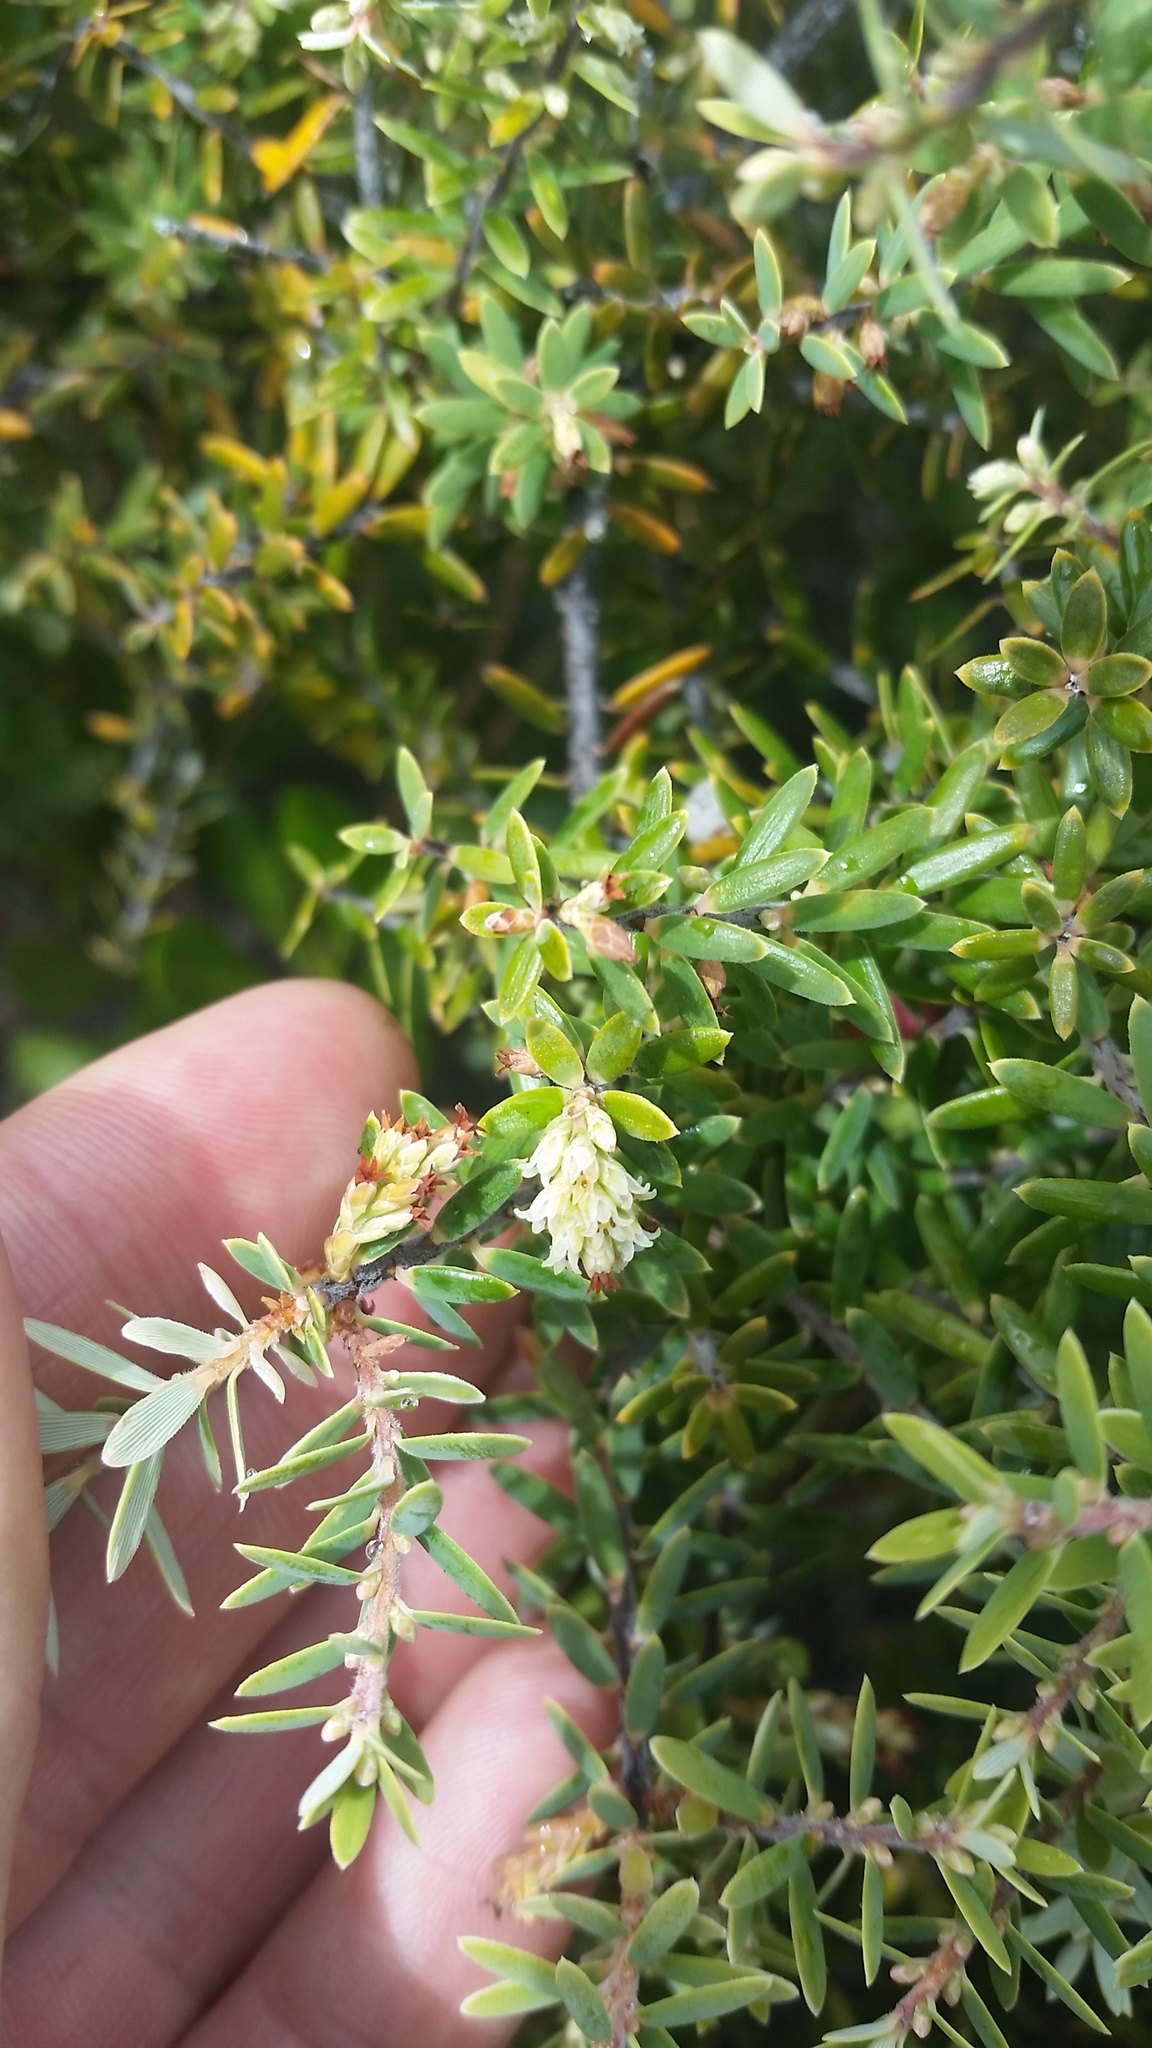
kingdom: Plantae
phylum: Tracheophyta
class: Magnoliopsida
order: Ericales
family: Ericaceae
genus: Leptecophylla
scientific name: Leptecophylla tameiameiae
